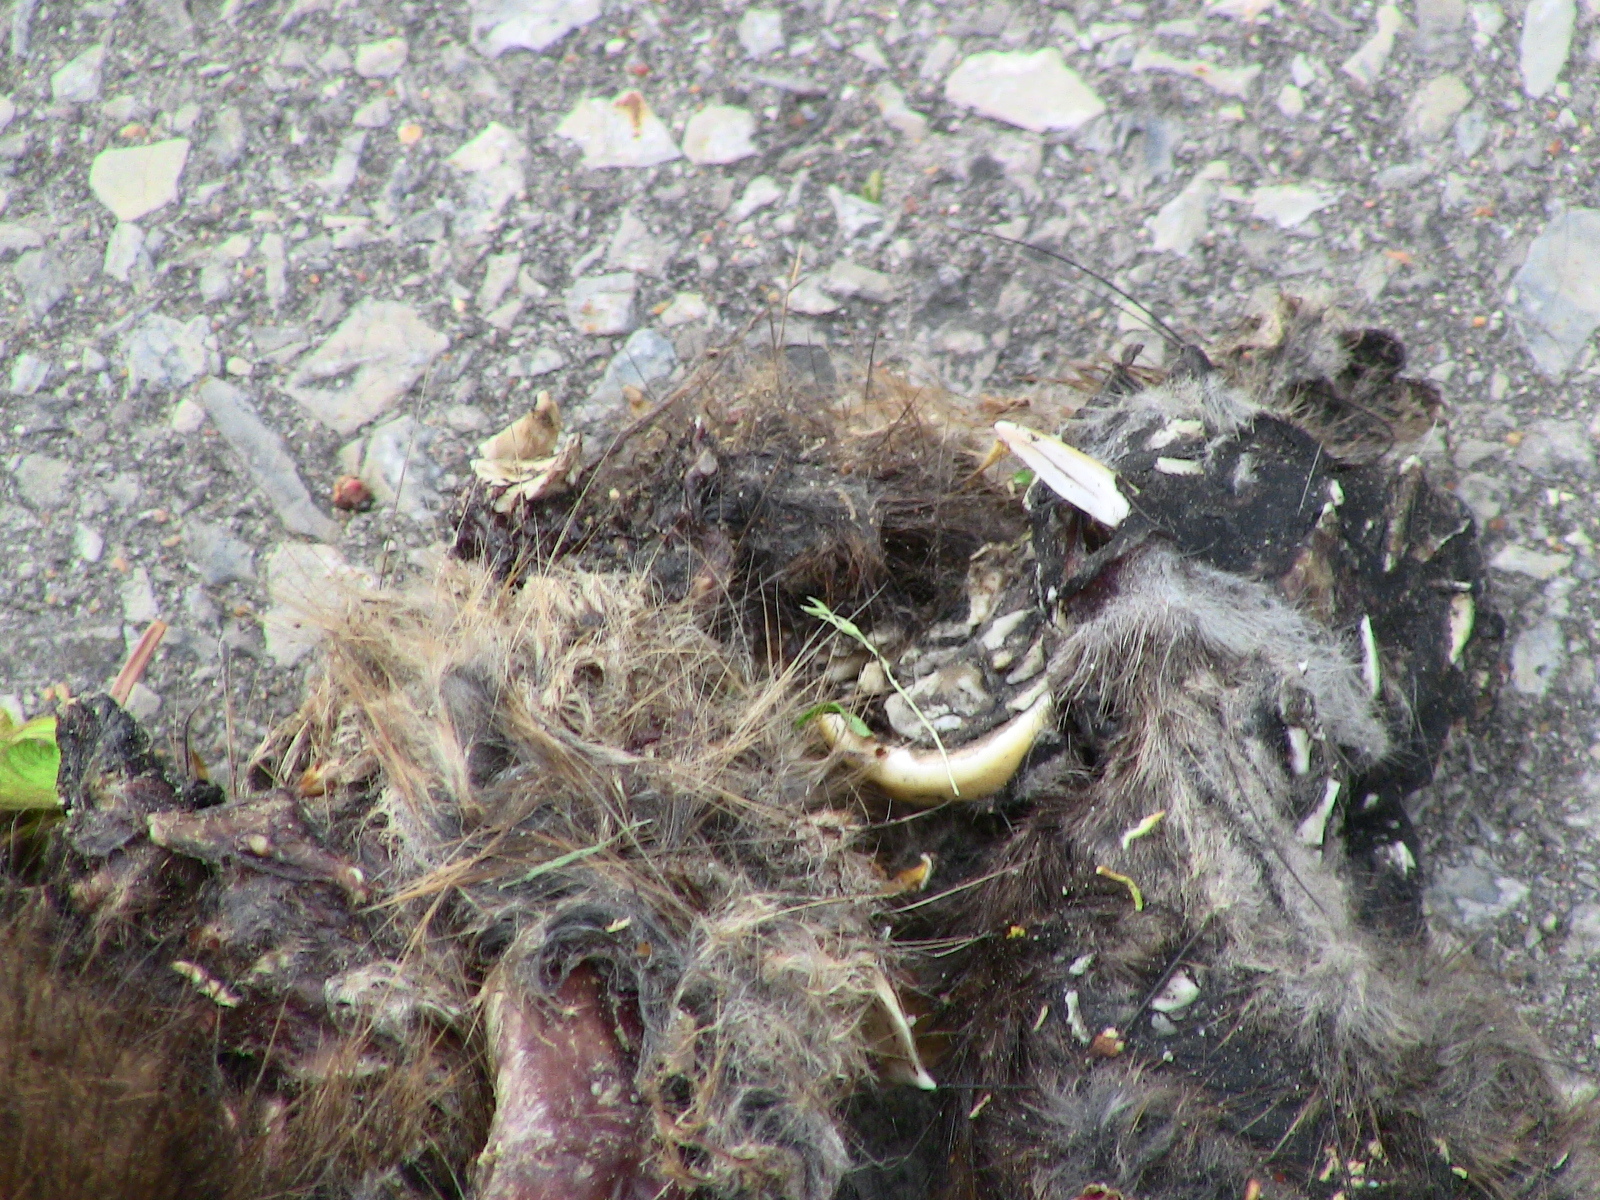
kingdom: Animalia
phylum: Chordata
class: Mammalia
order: Rodentia
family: Cricetidae
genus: Ondatra
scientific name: Ondatra zibethicus
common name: Muskrat
